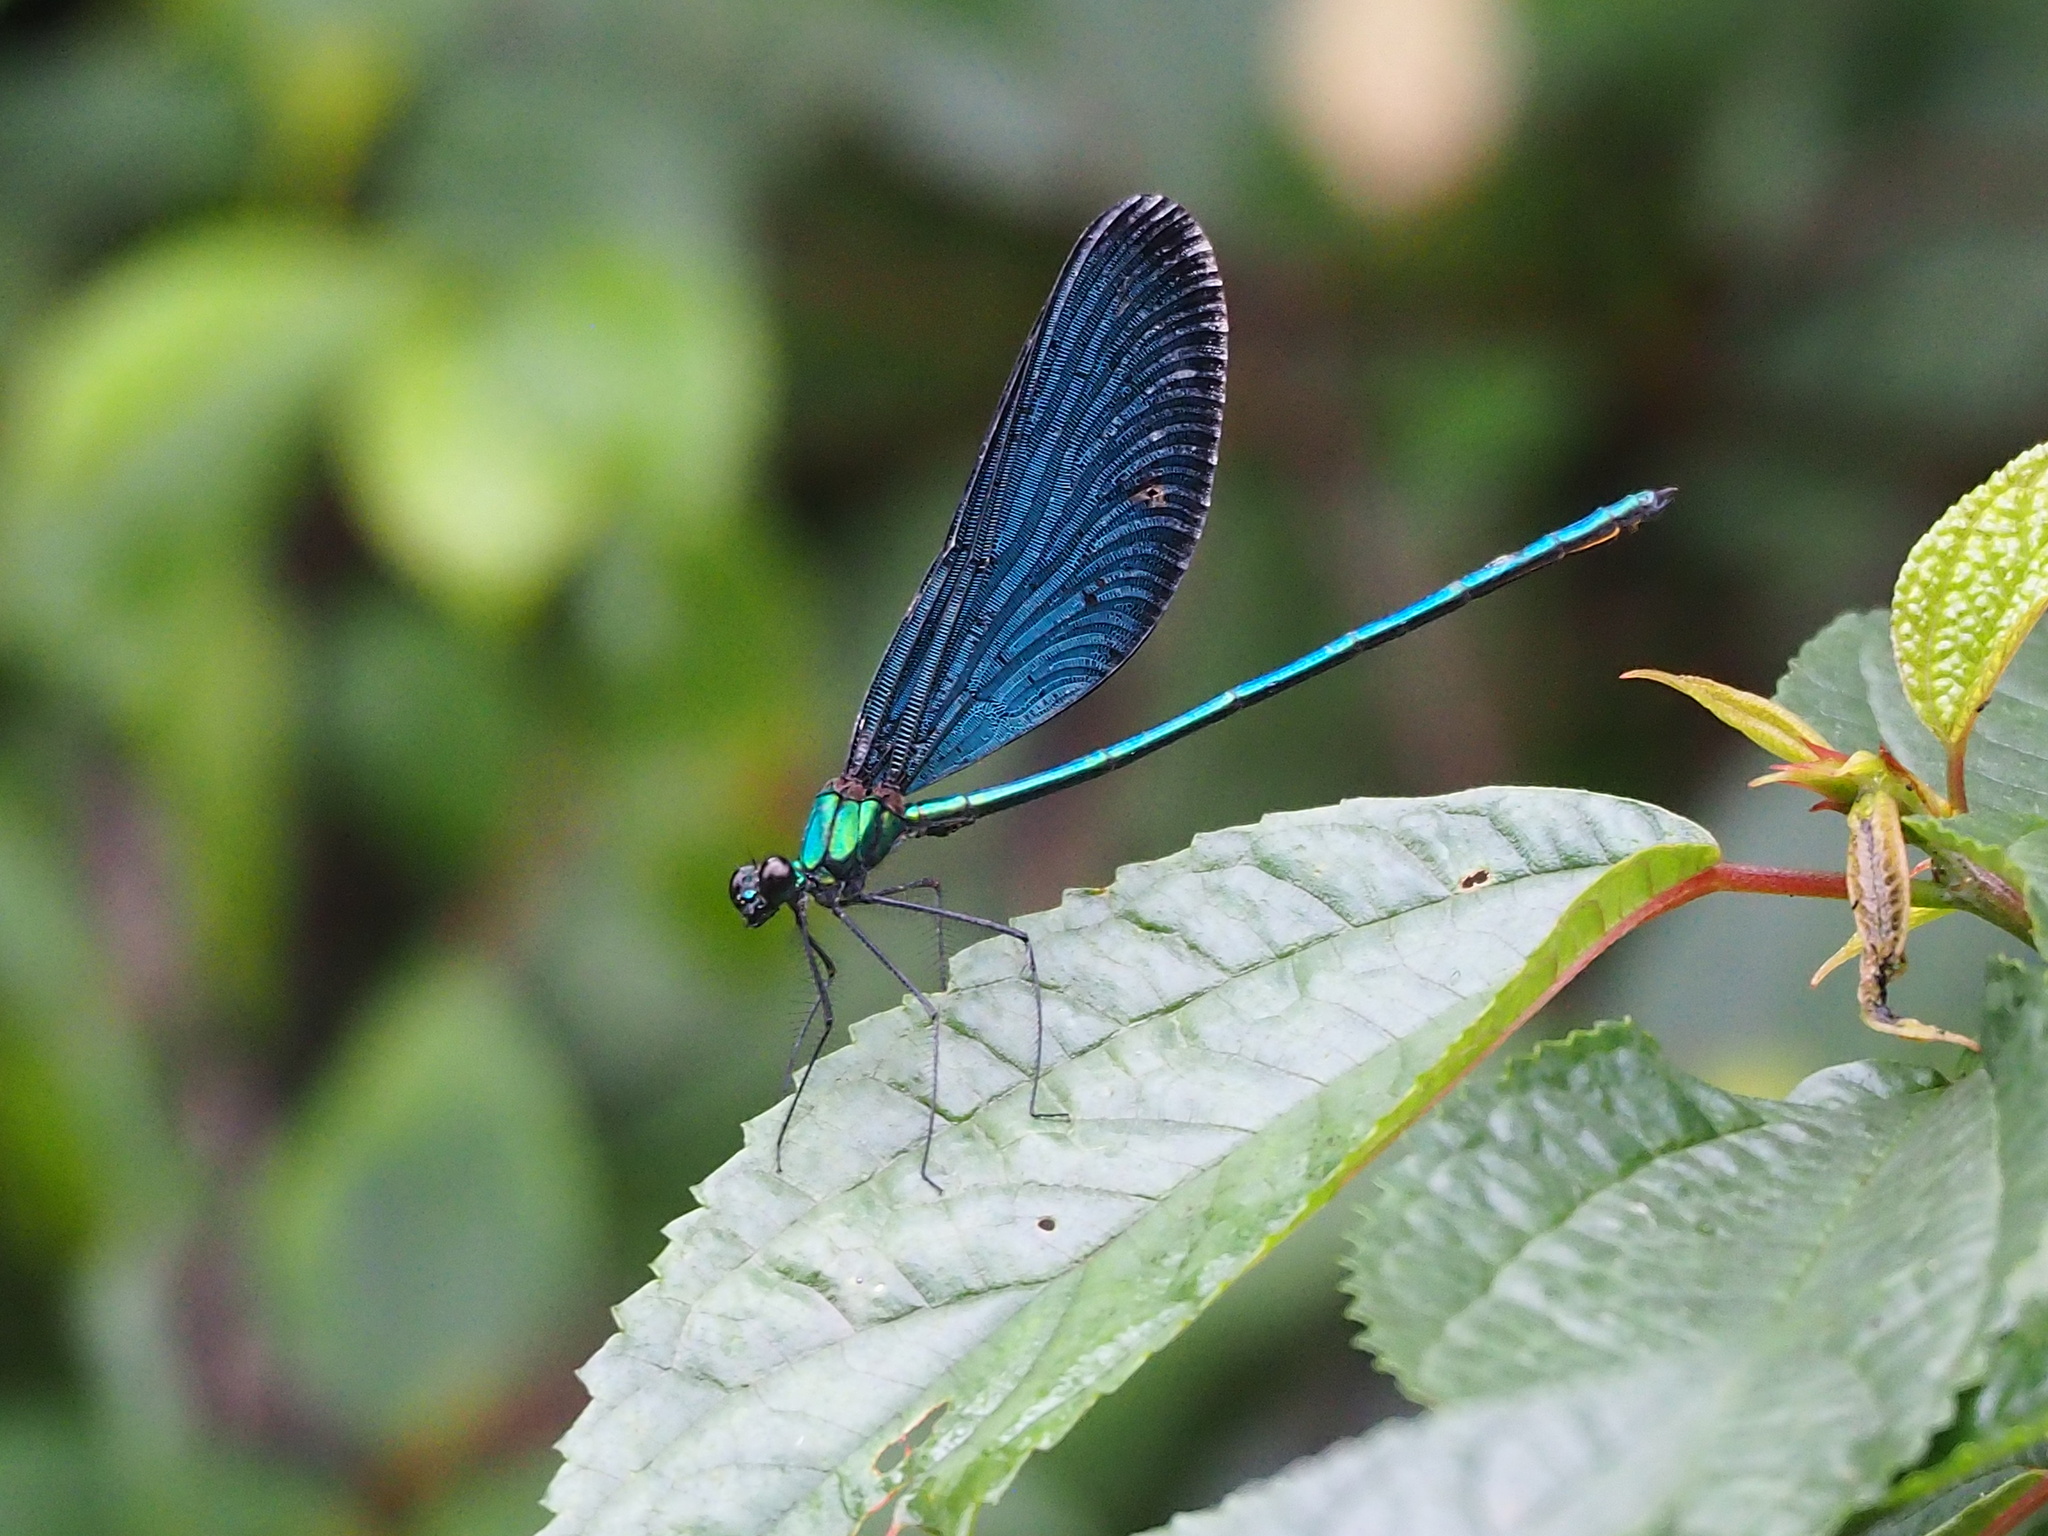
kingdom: Animalia
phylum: Arthropoda
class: Insecta
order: Odonata
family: Calopterygidae
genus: Matrona
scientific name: Matrona cyanoptera
